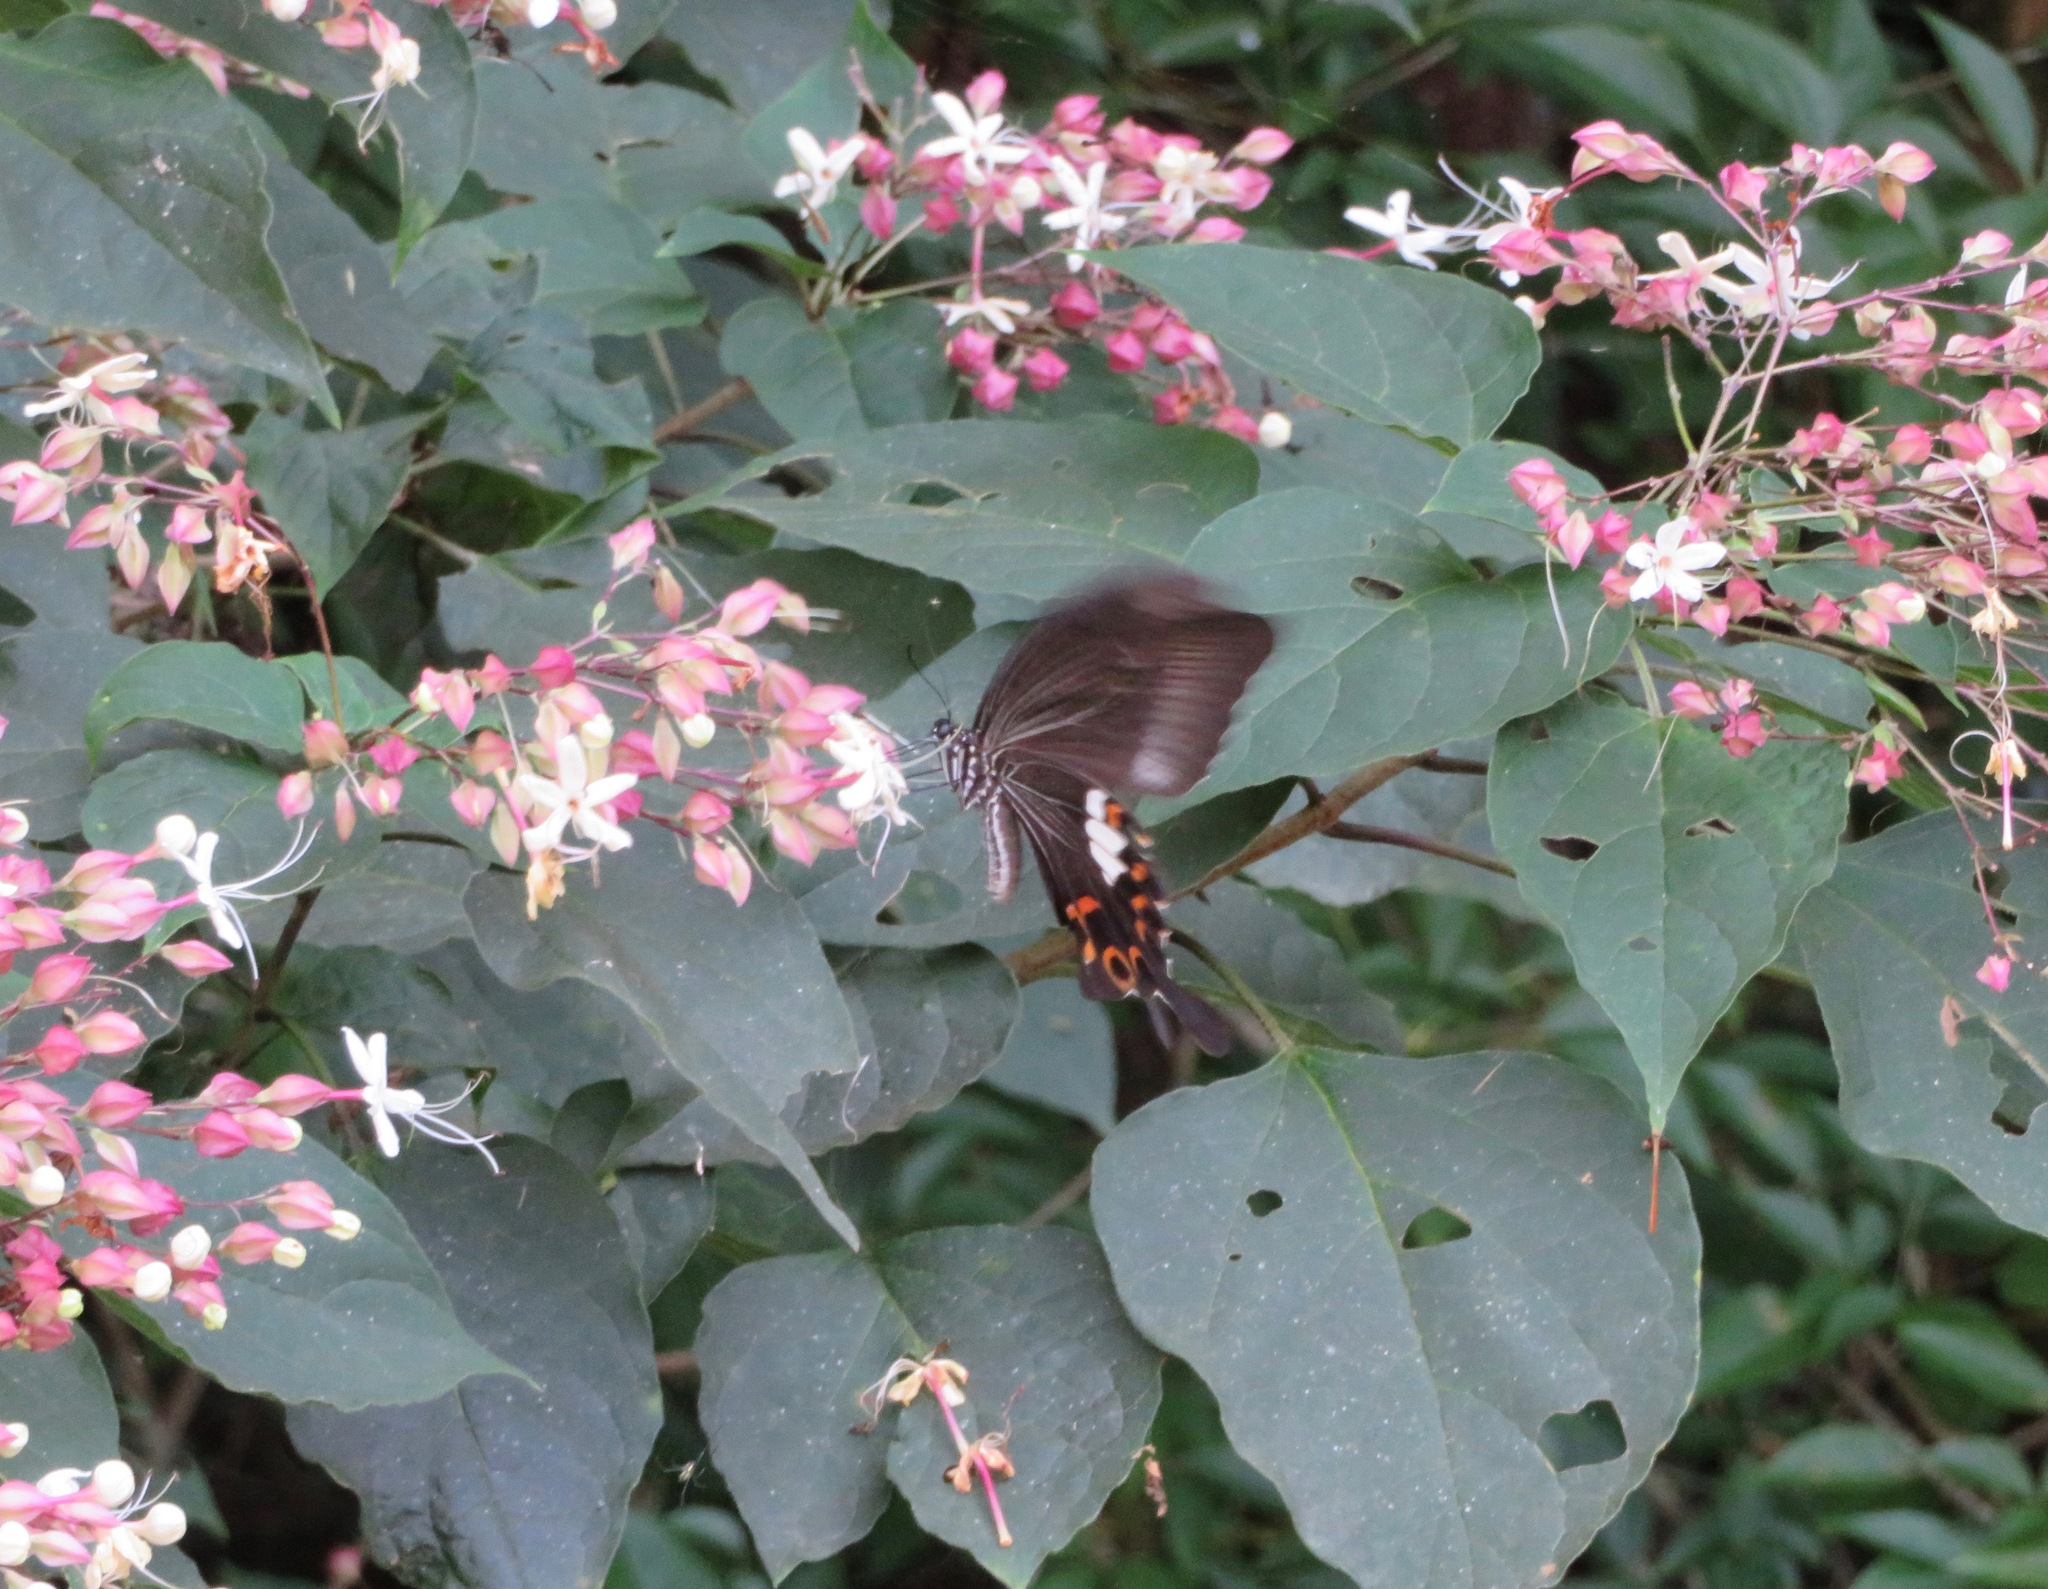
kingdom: Animalia
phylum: Arthropoda
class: Insecta
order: Lepidoptera
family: Papilionidae
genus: Papilio
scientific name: Papilio helenus
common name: Red helen
